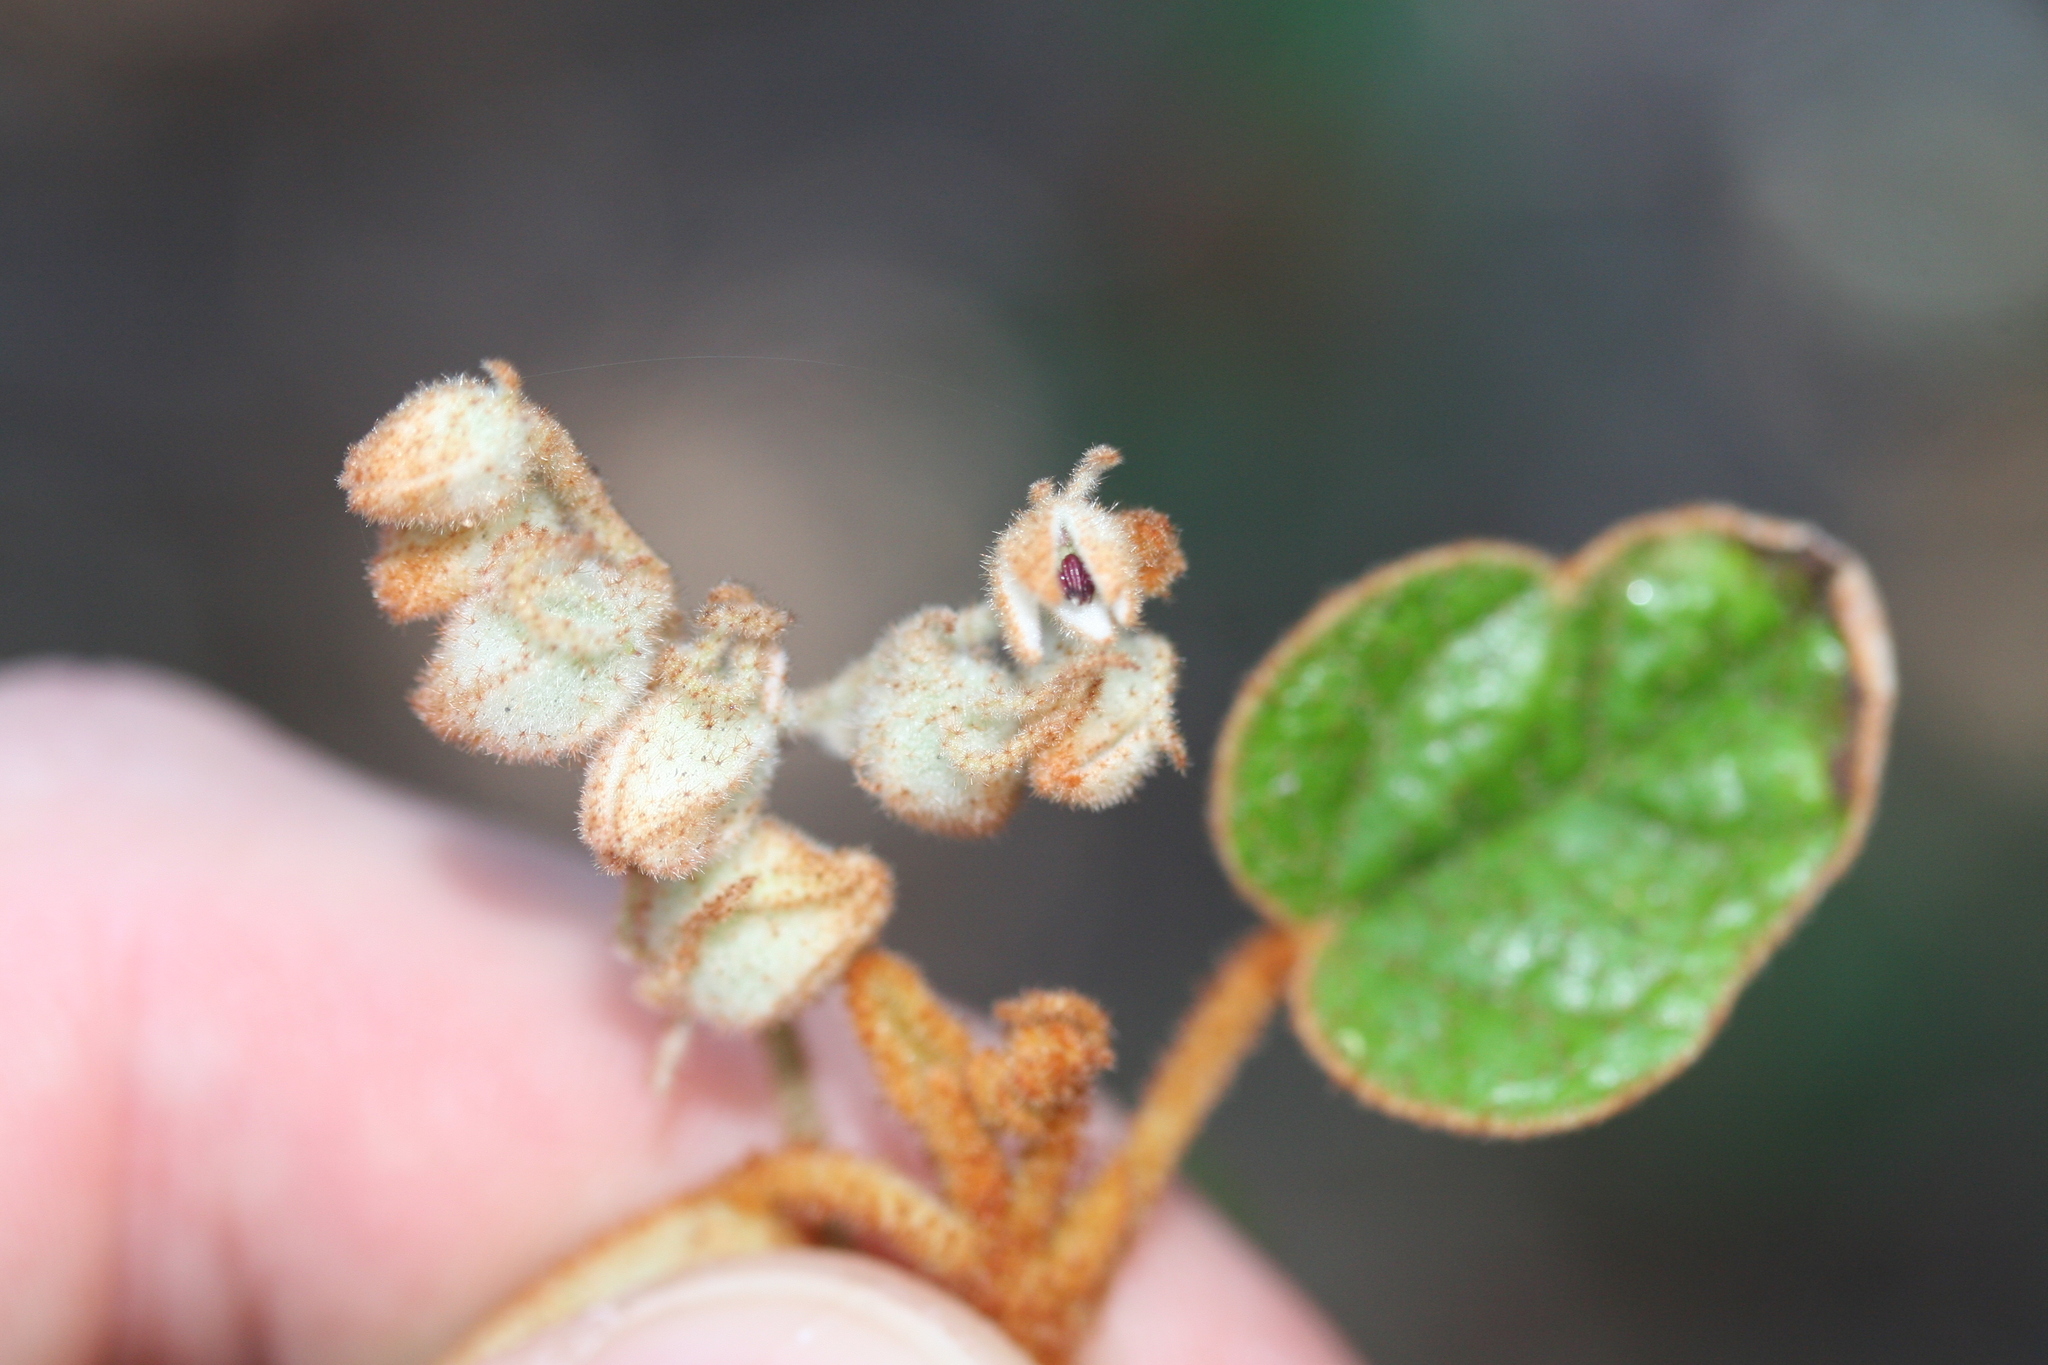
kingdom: Plantae
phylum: Tracheophyta
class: Magnoliopsida
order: Malvales
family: Malvaceae
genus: Lasiopetalum
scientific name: Lasiopetalum quinquenervium
